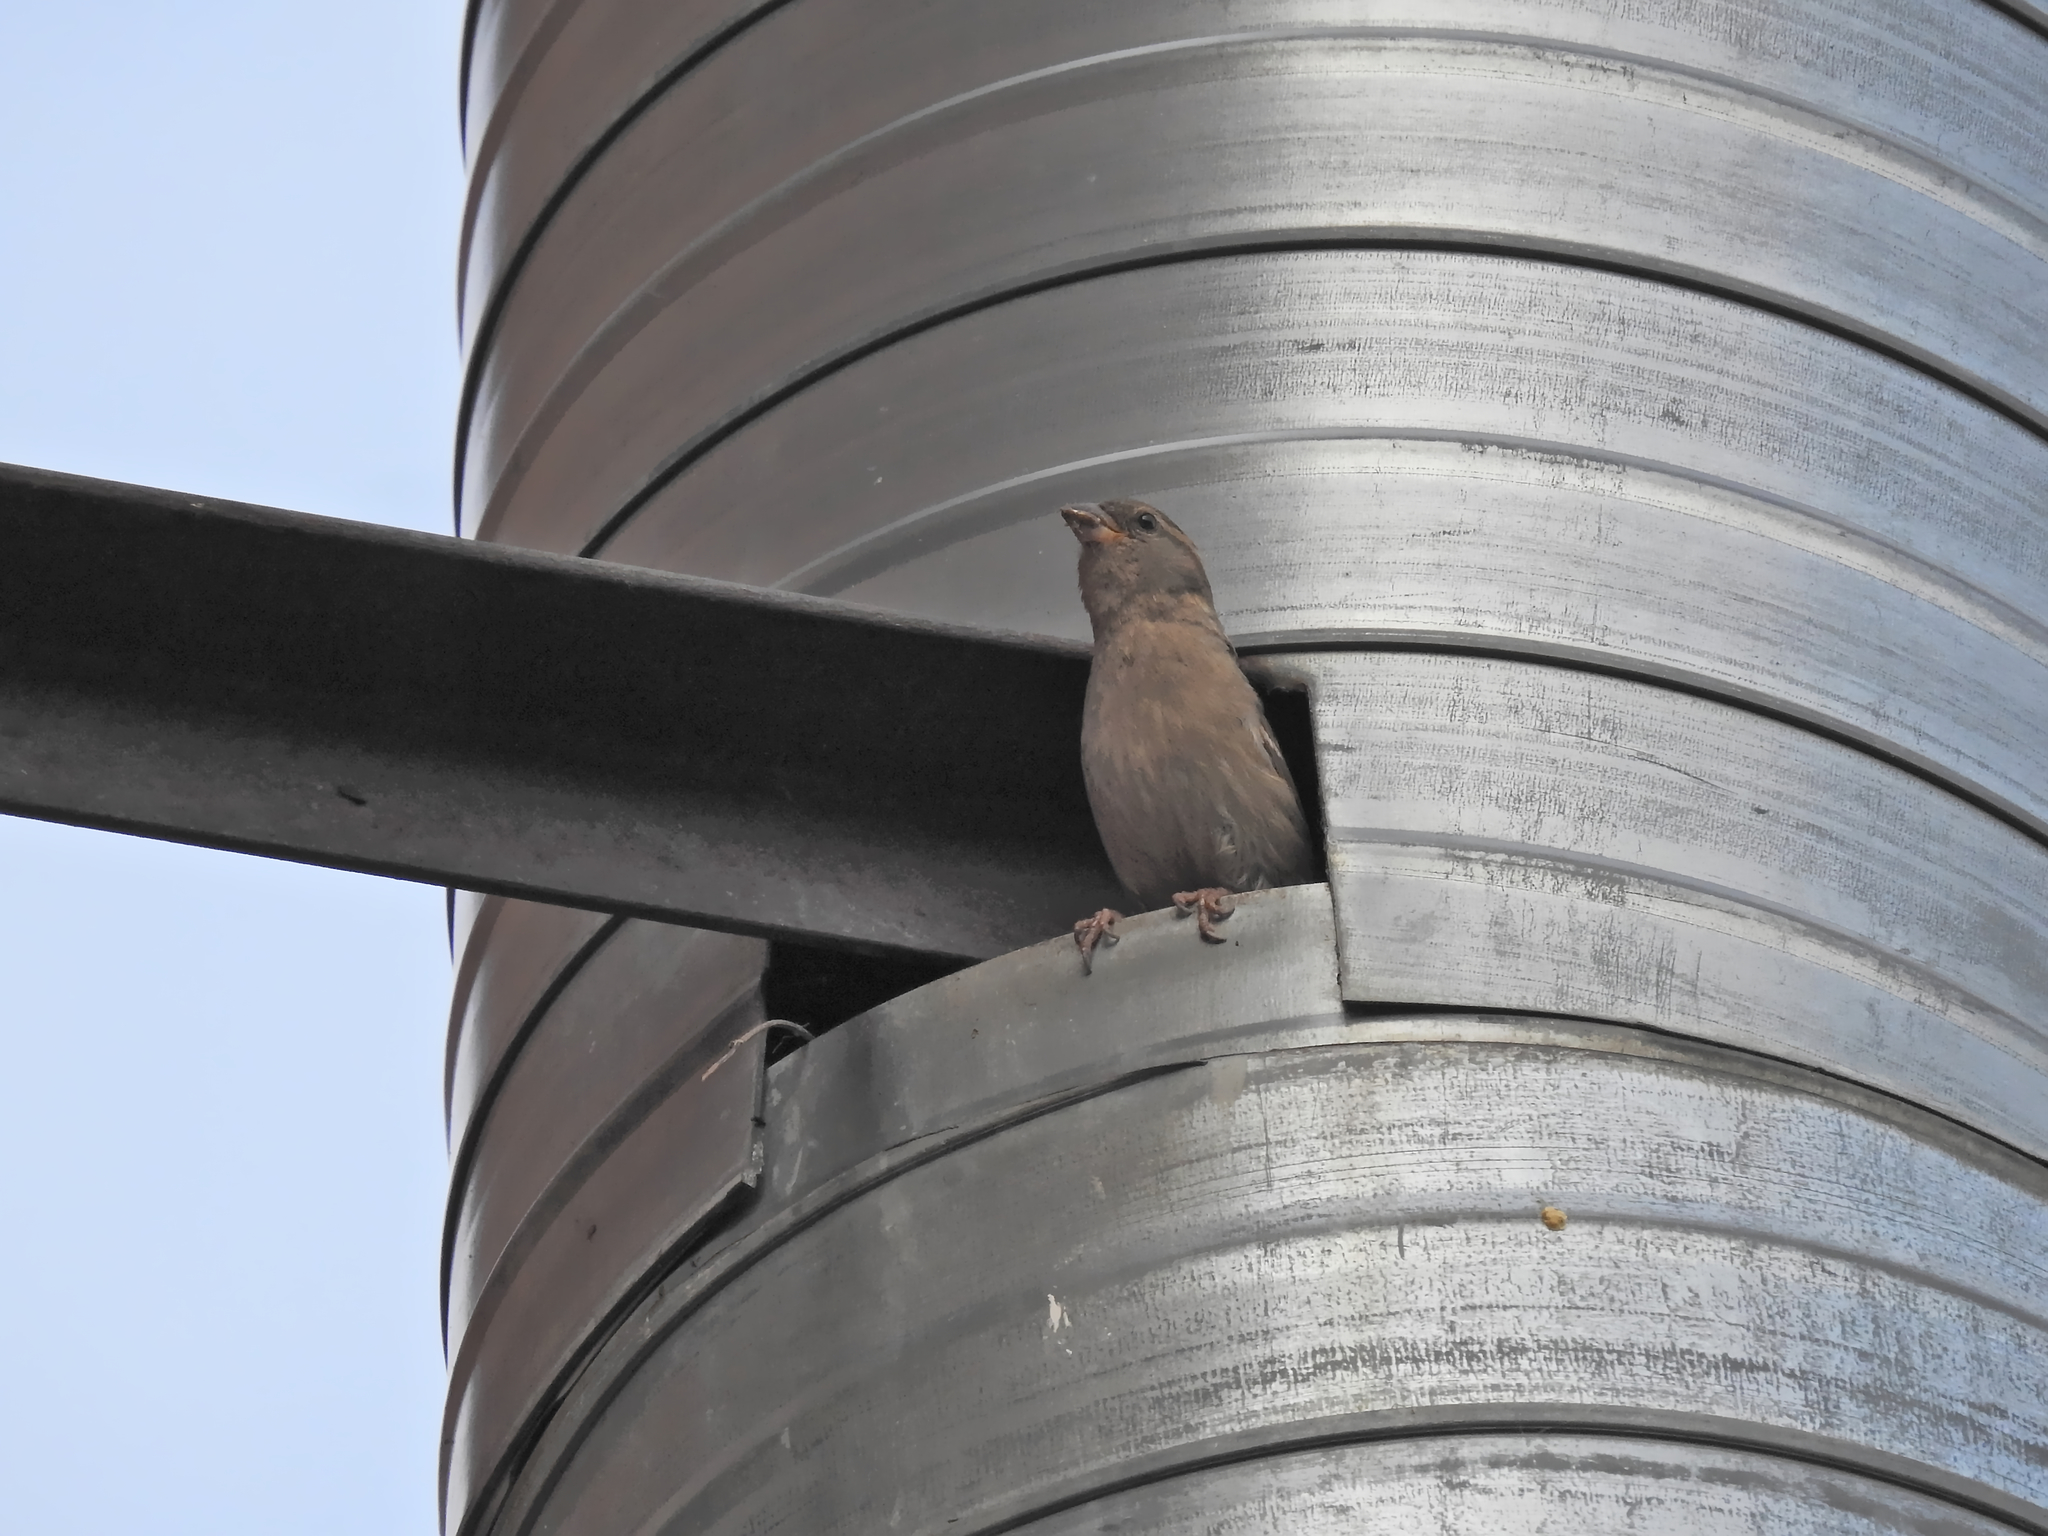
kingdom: Animalia
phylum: Chordata
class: Aves
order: Passeriformes
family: Passeridae
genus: Passer
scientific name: Passer domesticus
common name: House sparrow
